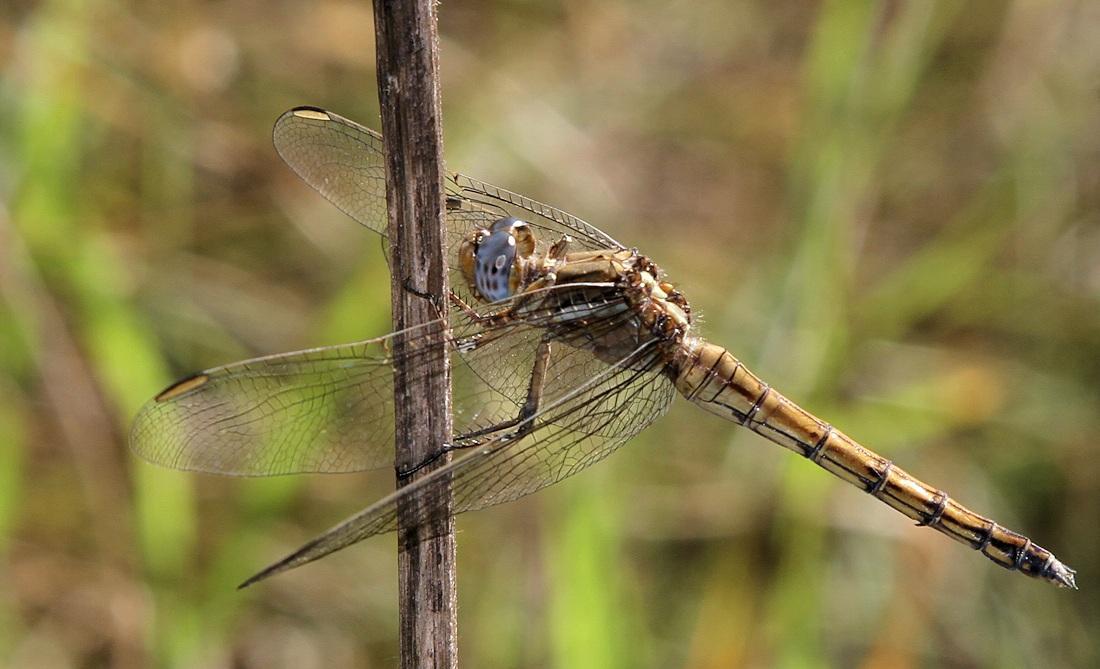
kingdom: Animalia
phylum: Arthropoda
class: Insecta
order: Odonata
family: Libellulidae
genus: Orthetrum
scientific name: Orthetrum chrysostigma
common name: Epaulet skimmer
